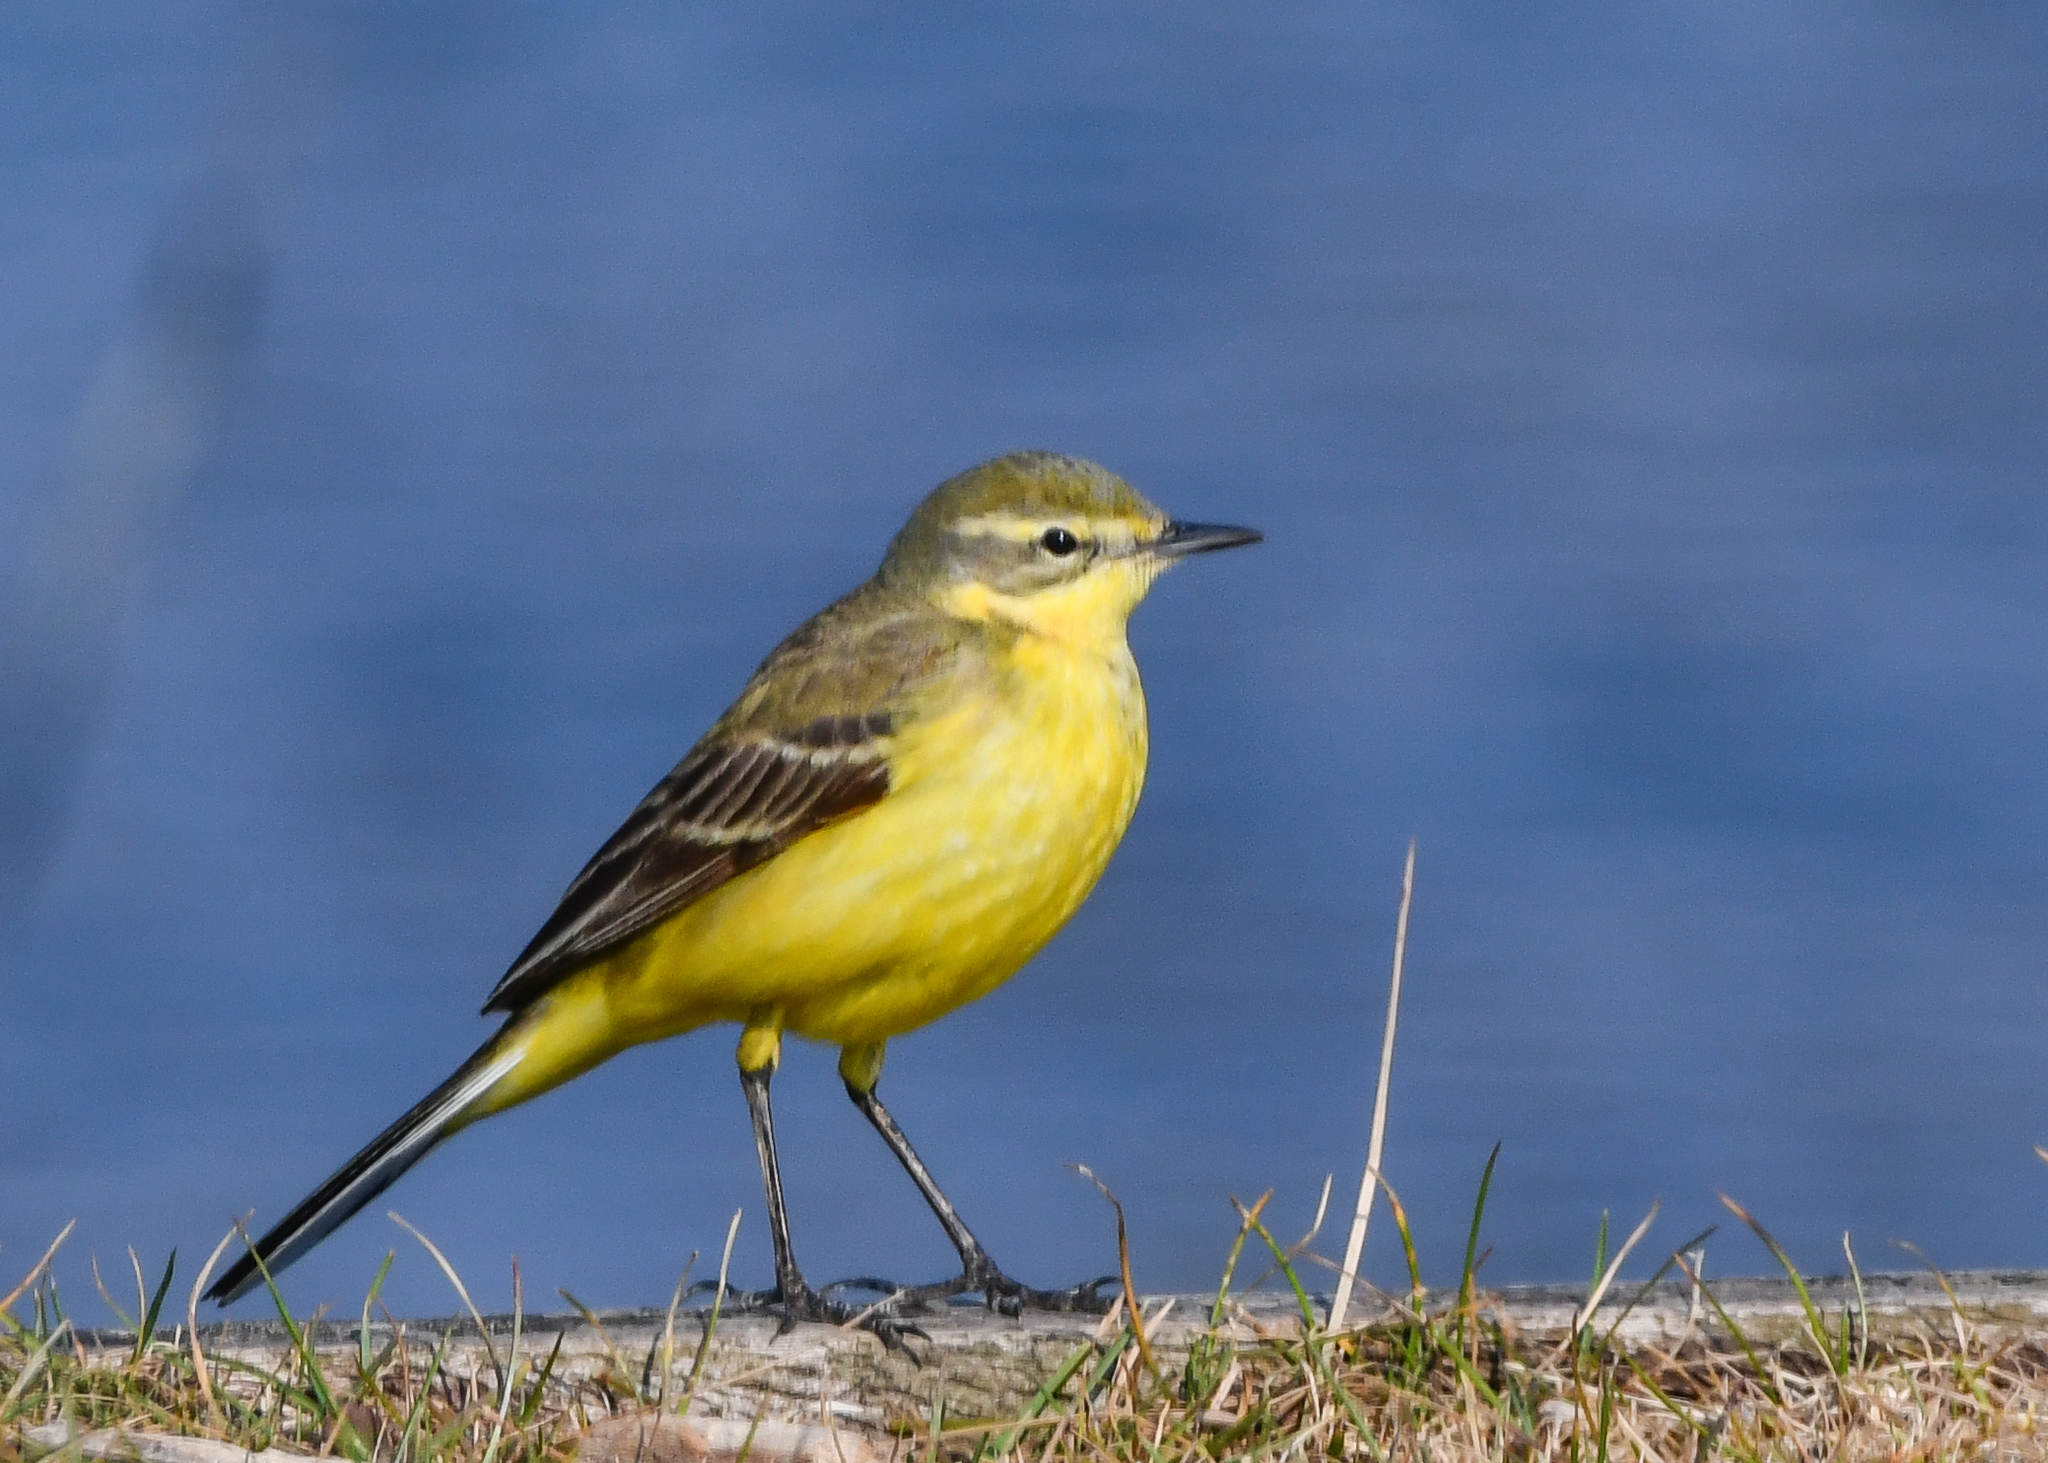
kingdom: Animalia
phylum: Chordata
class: Aves
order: Passeriformes
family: Motacillidae
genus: Motacilla
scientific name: Motacilla flava
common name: Western yellow wagtail
